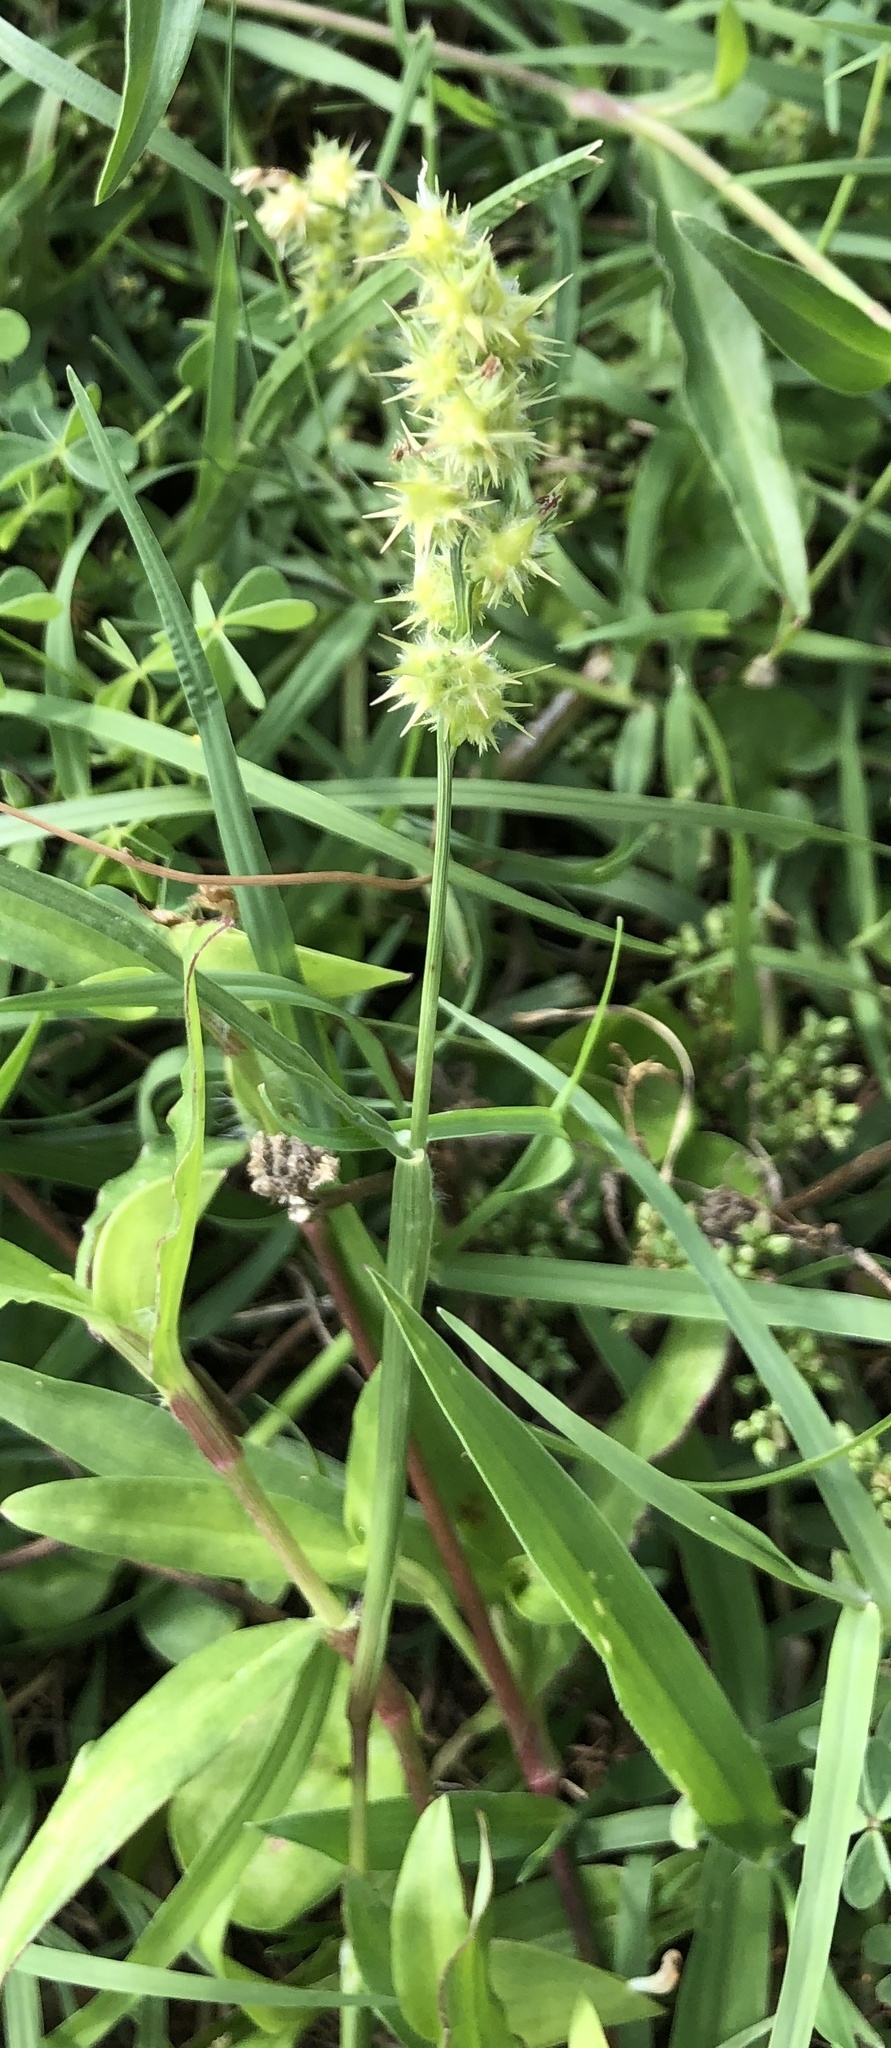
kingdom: Plantae
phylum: Tracheophyta
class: Liliopsida
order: Poales
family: Poaceae
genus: Cenchrus
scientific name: Cenchrus spinifex
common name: Coast sandbur
